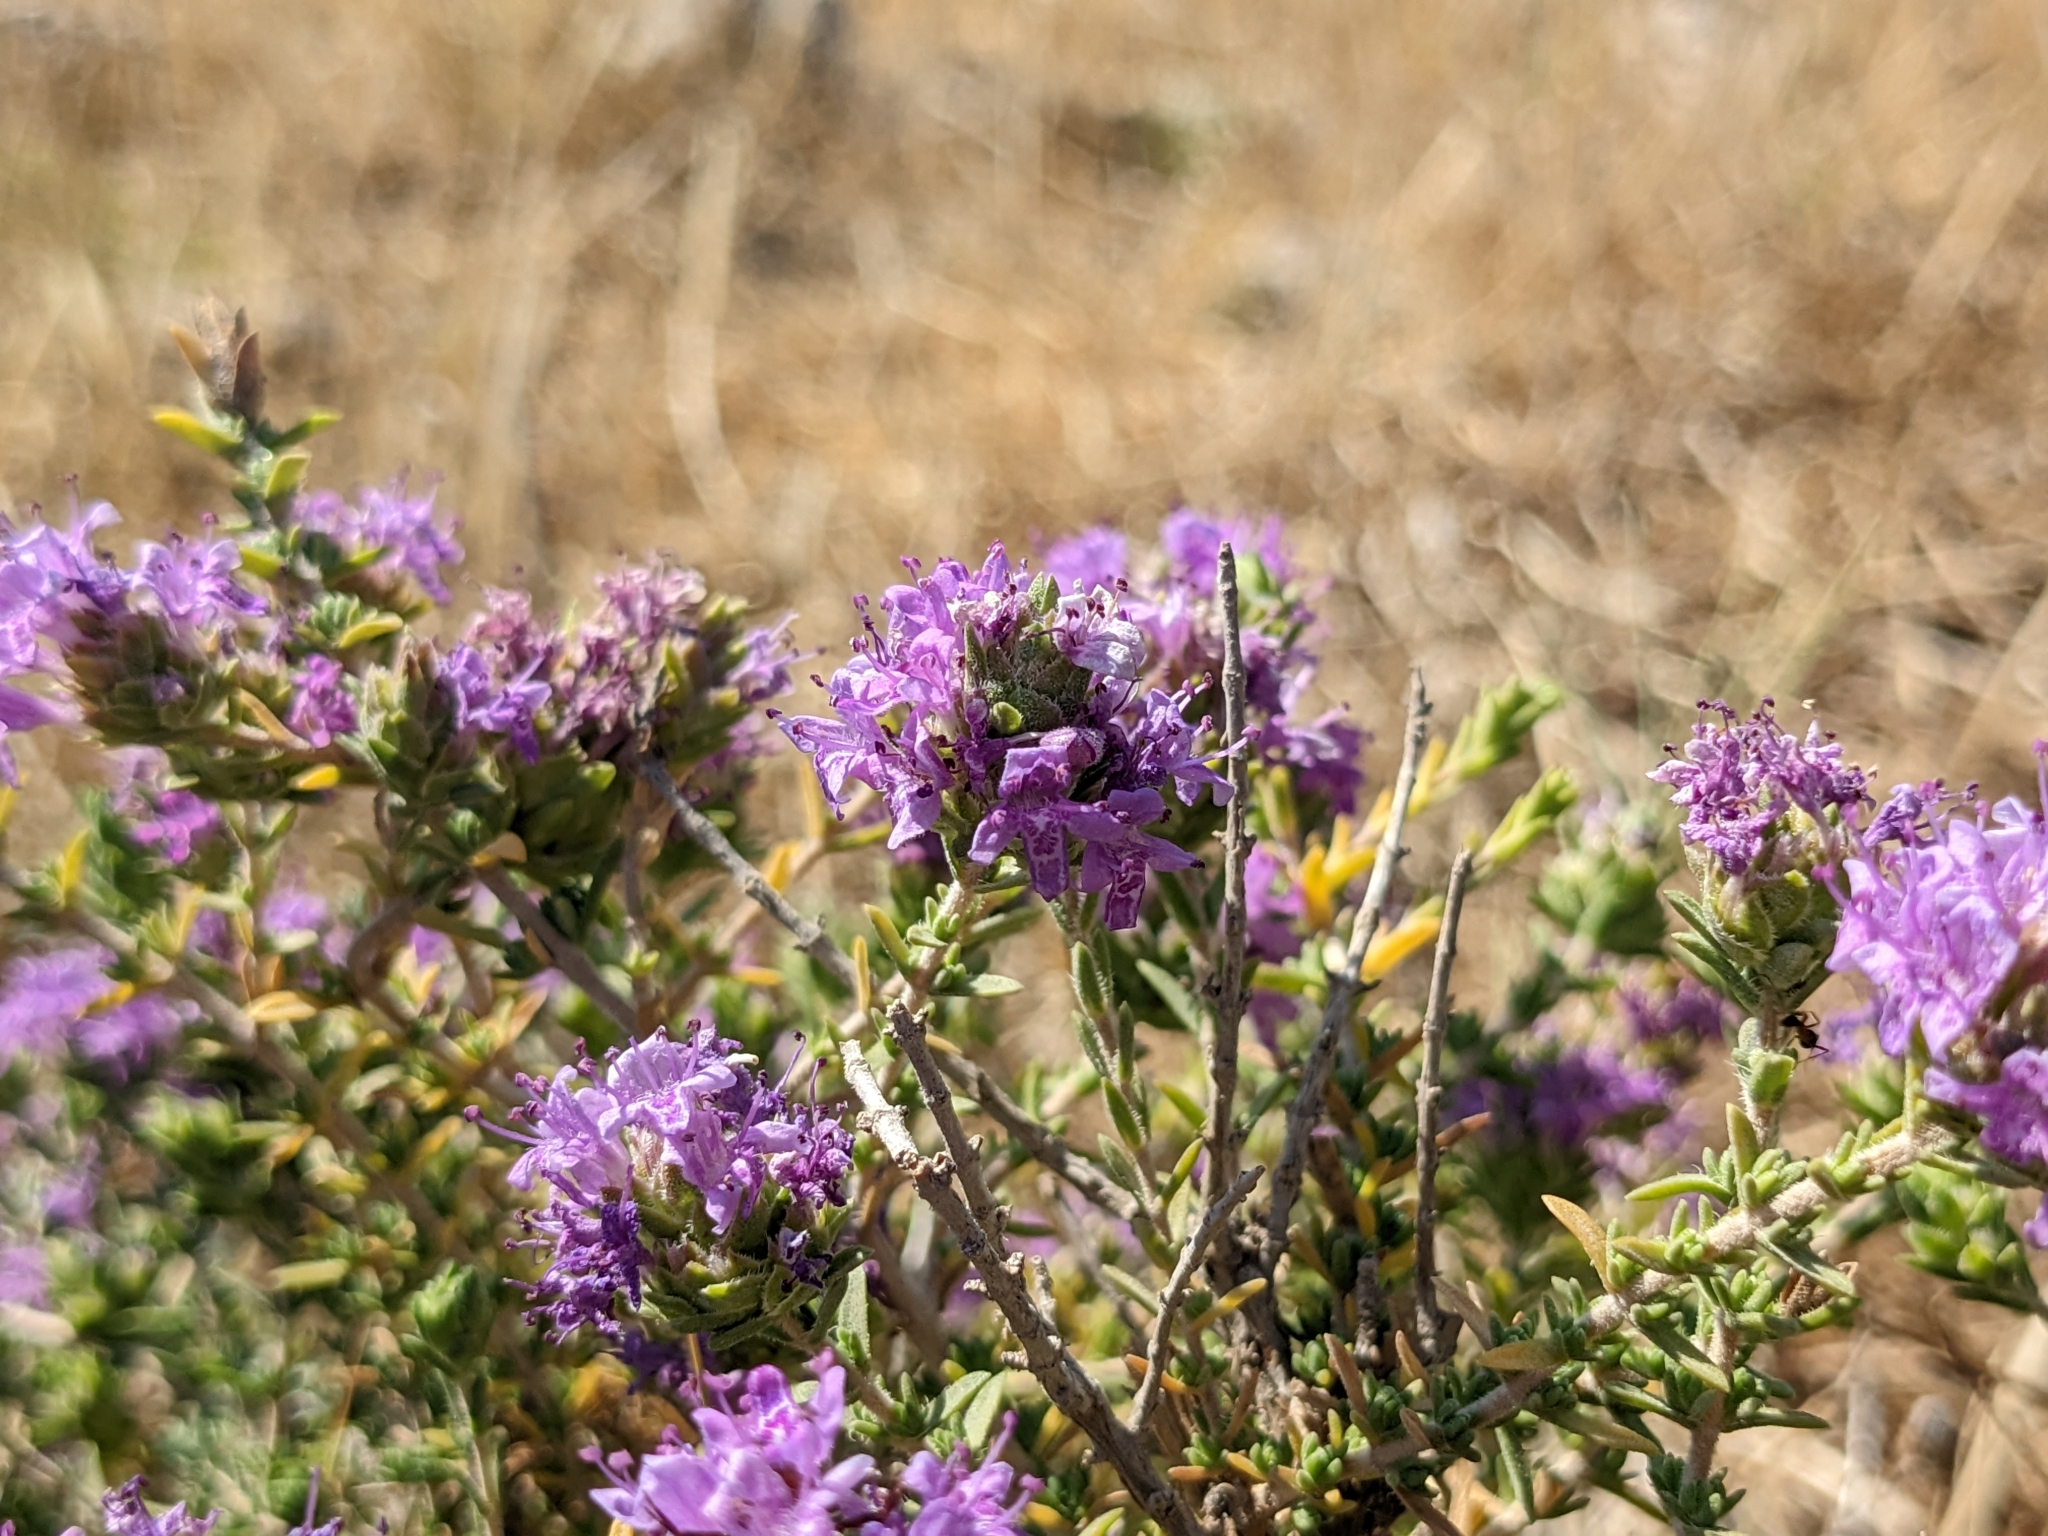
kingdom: Plantae
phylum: Tracheophyta
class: Magnoliopsida
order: Lamiales
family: Lamiaceae
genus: Thymbra
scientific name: Thymbra capitata
